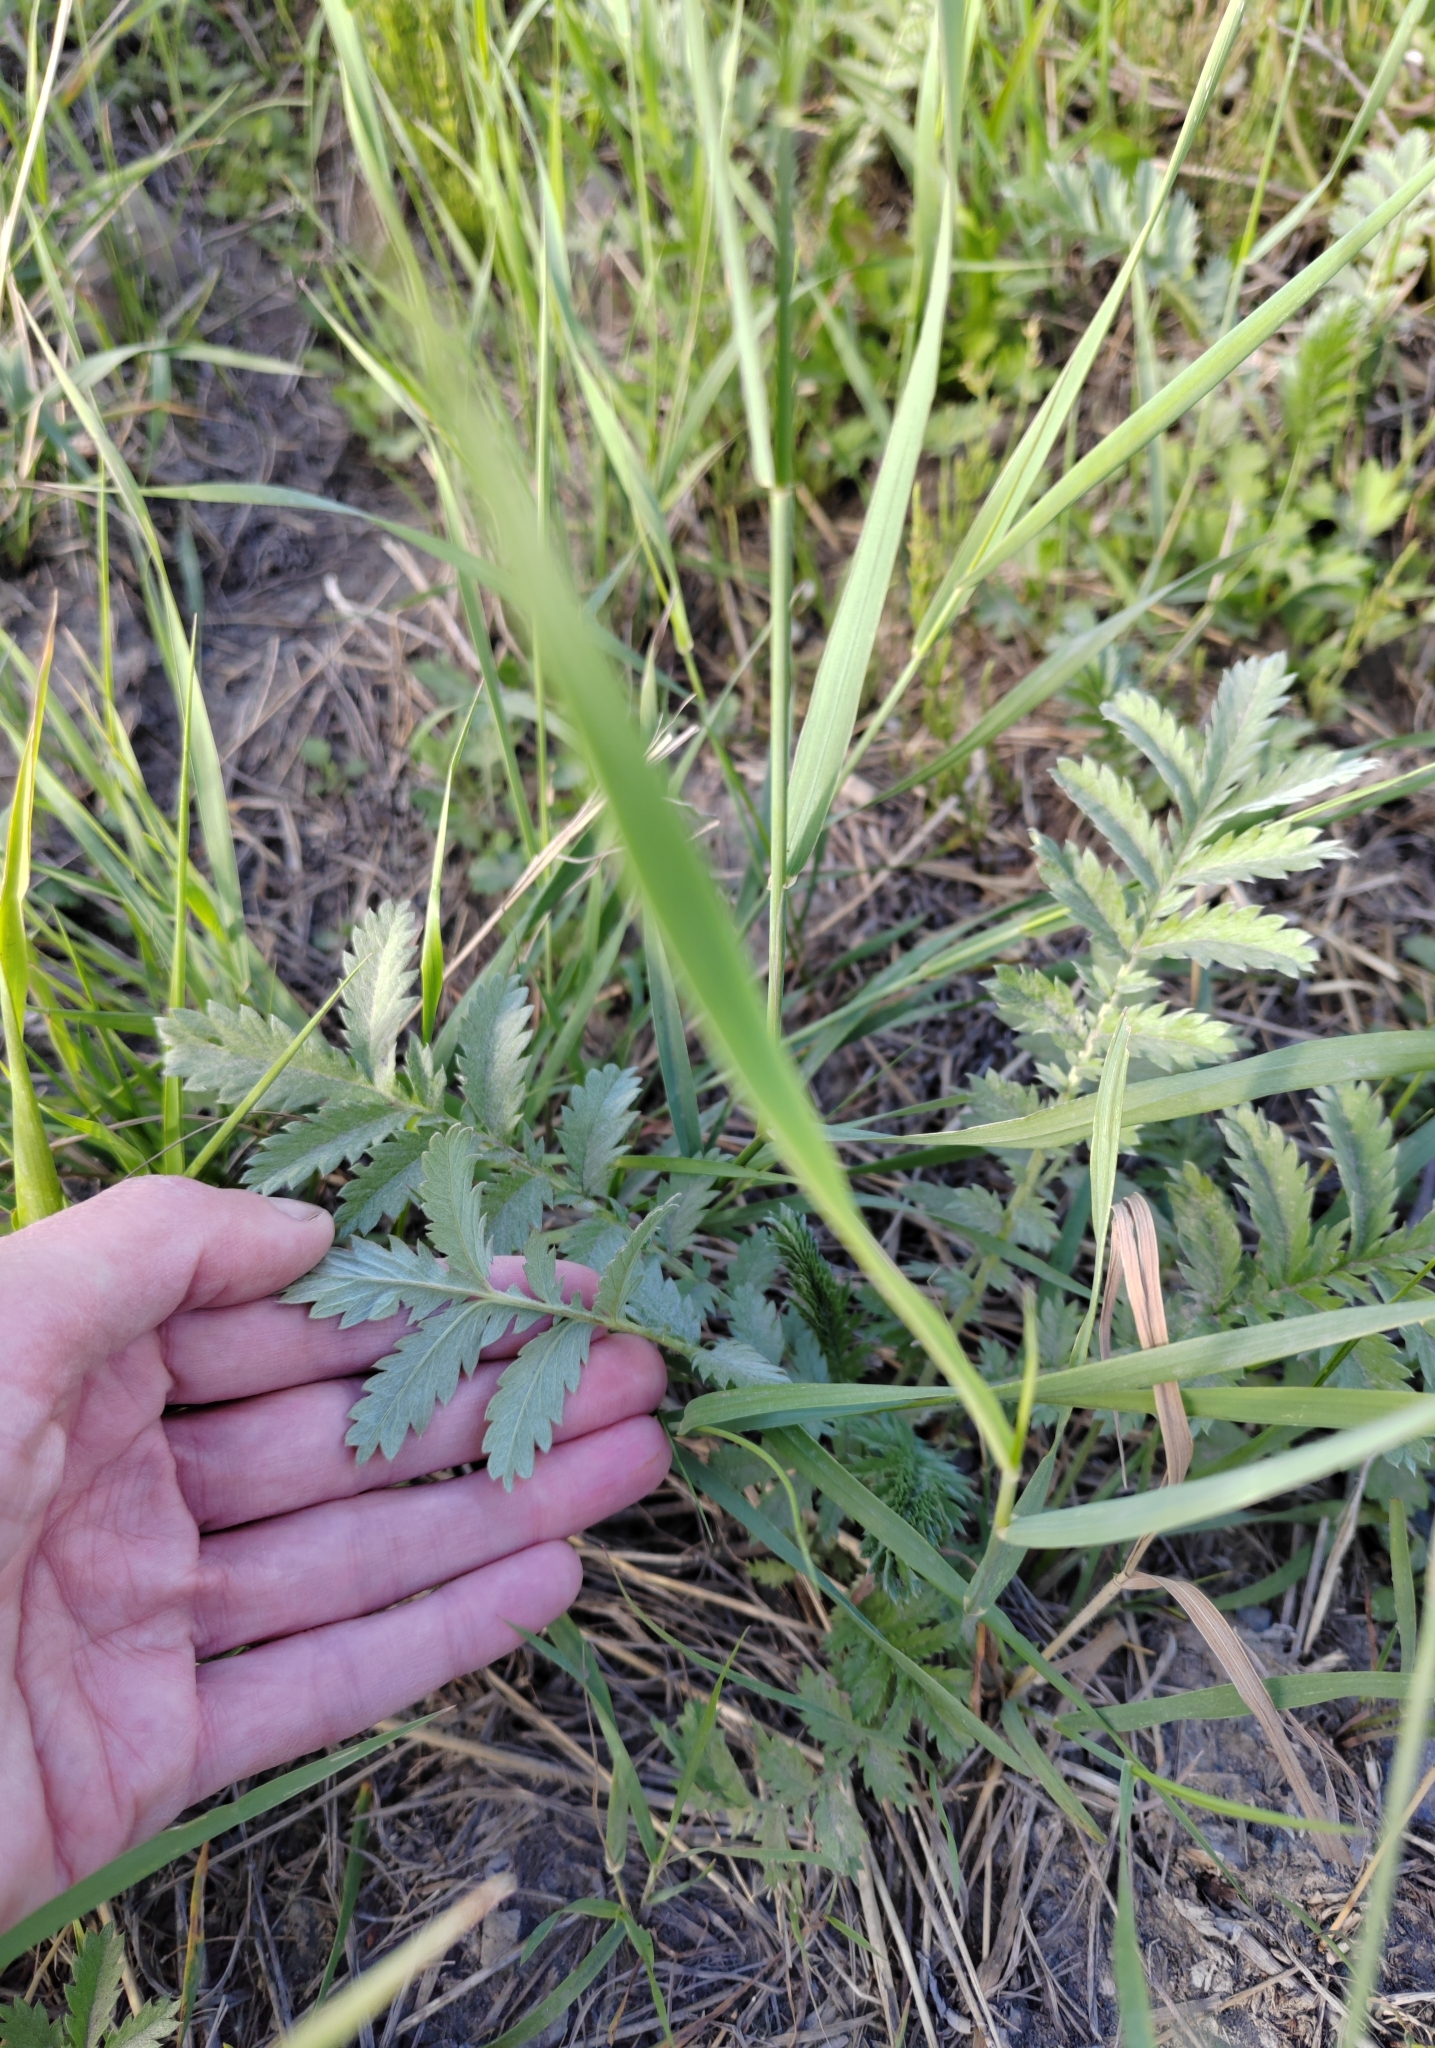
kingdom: Plantae
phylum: Tracheophyta
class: Magnoliopsida
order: Rosales
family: Rosaceae
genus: Argentina
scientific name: Argentina anserina
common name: Common silverweed
